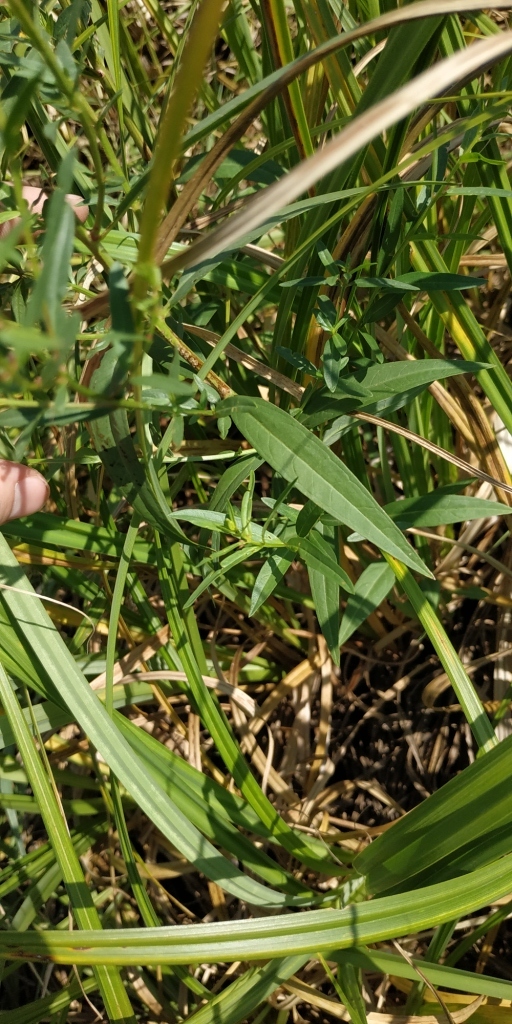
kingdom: Plantae
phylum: Tracheophyta
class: Magnoliopsida
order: Myrtales
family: Lythraceae
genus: Lythrum
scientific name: Lythrum virgatum
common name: European wand loosestrife
